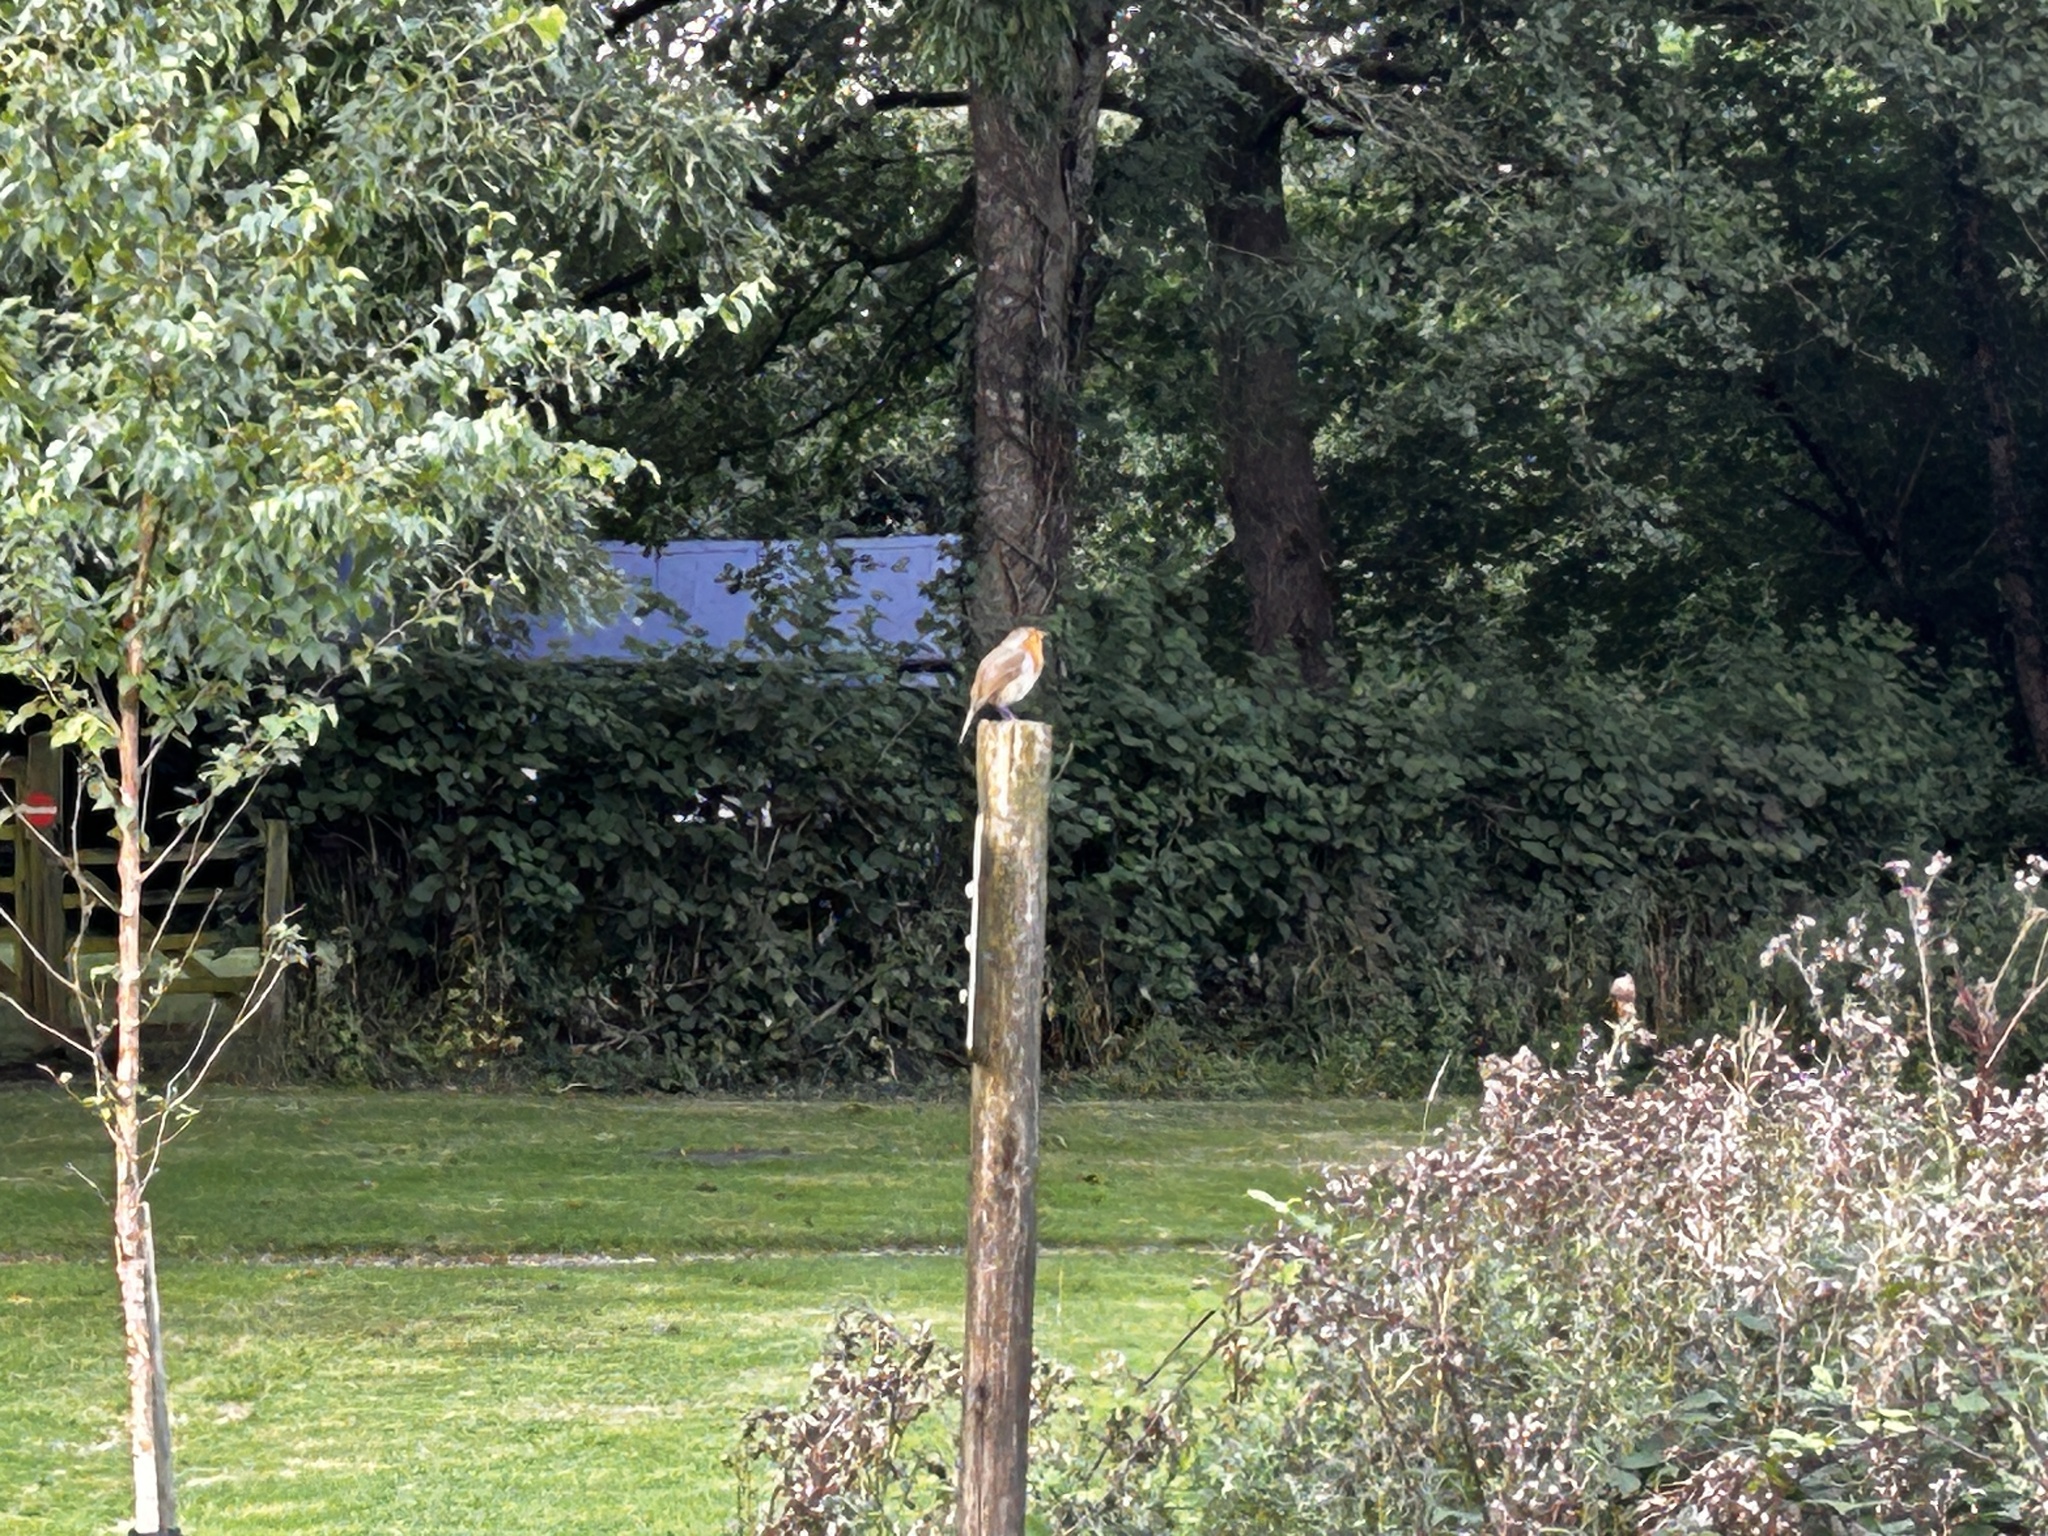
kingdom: Animalia
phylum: Chordata
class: Aves
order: Passeriformes
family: Muscicapidae
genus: Erithacus
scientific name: Erithacus rubecula
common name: European robin
